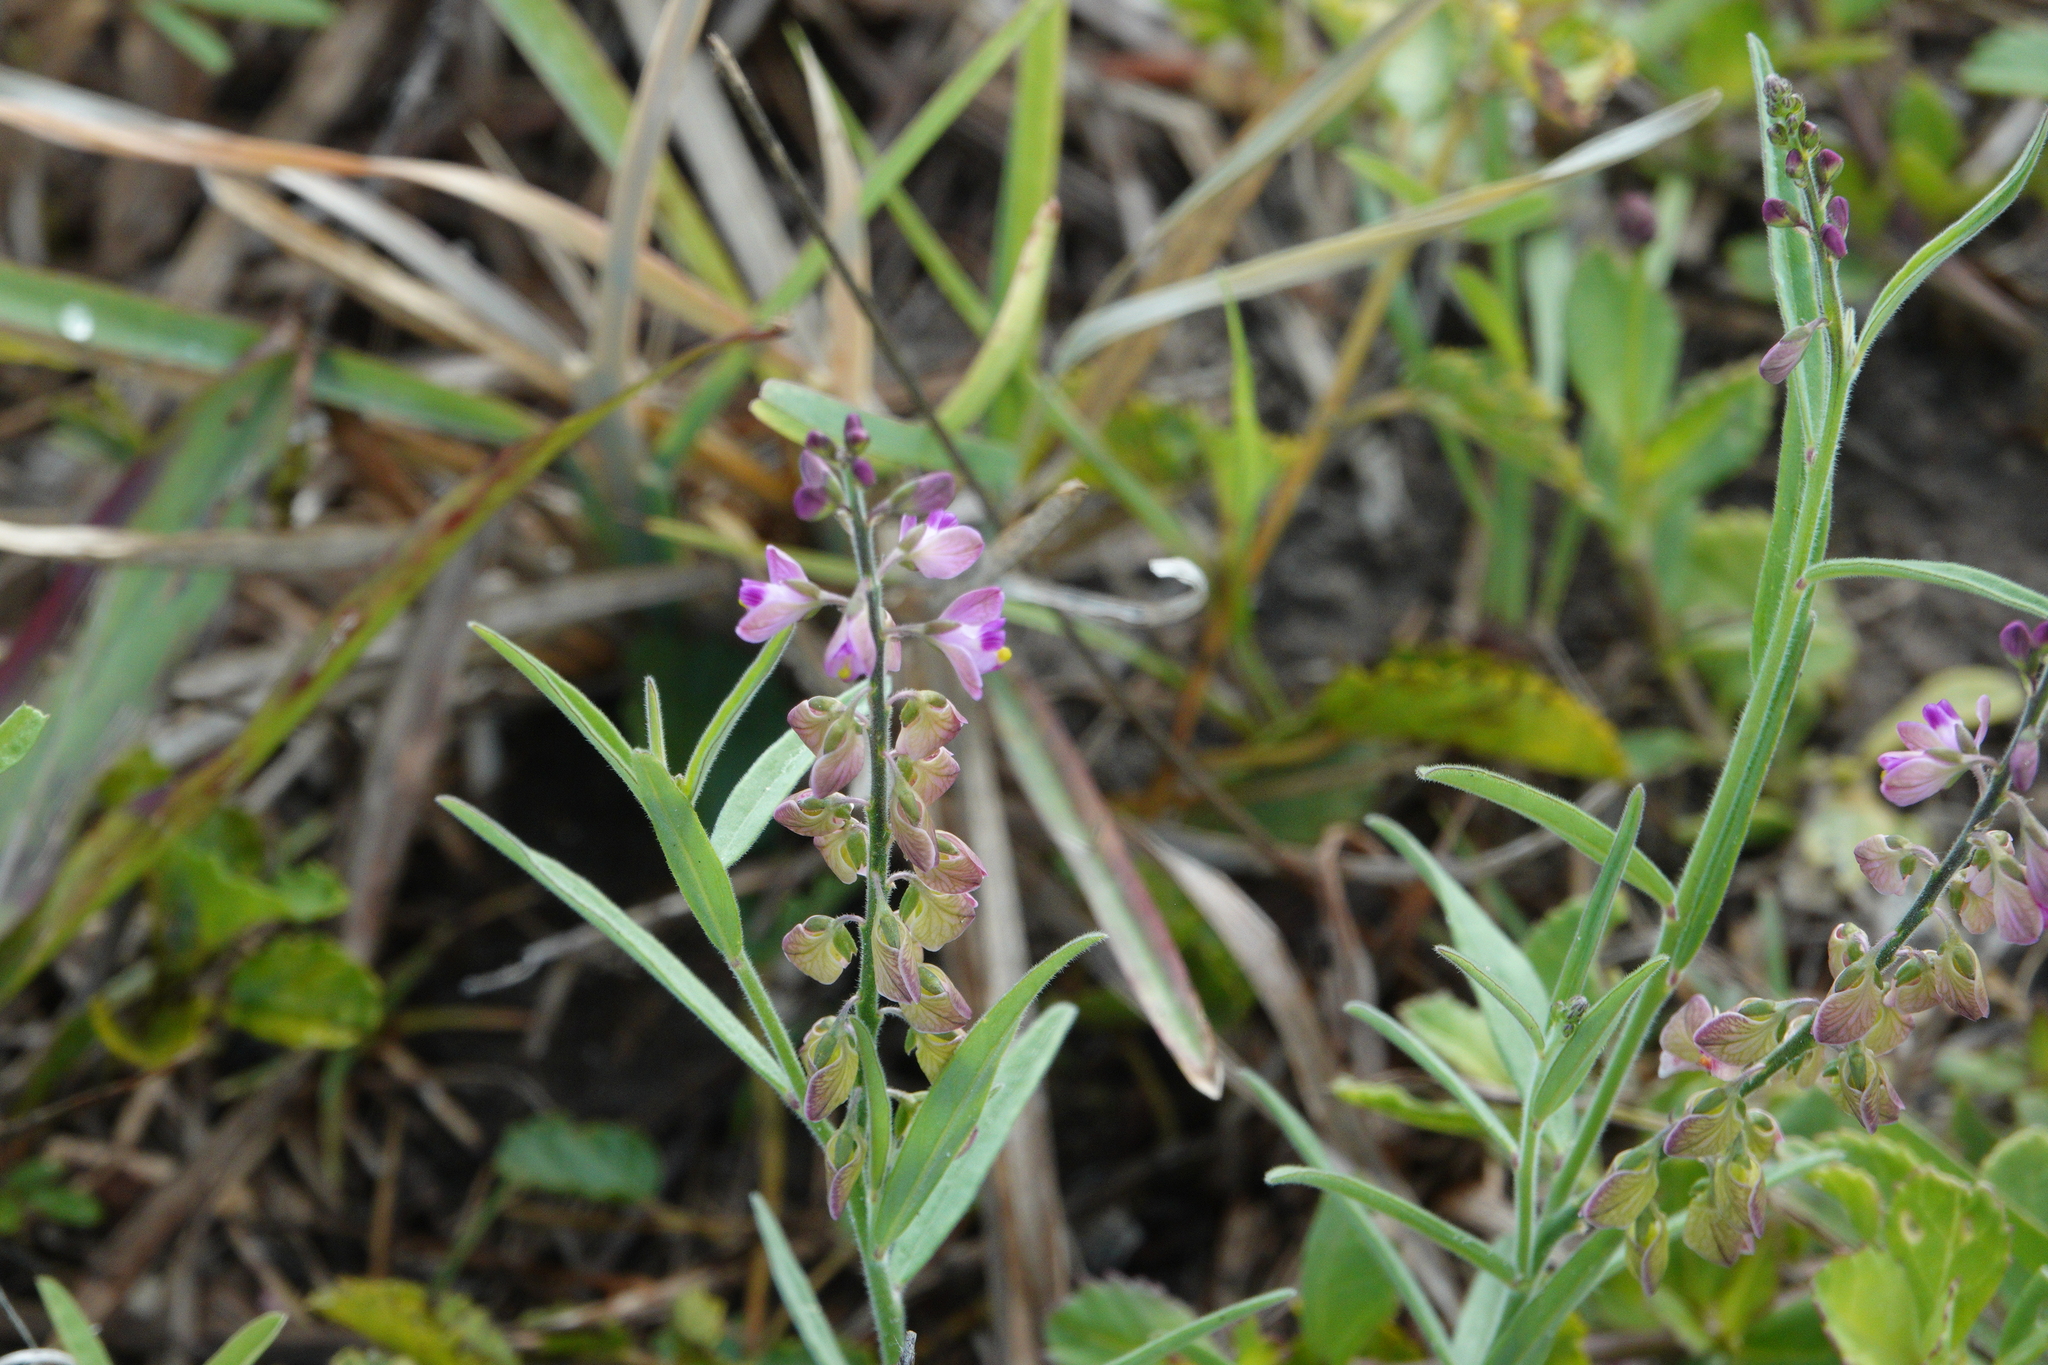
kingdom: Plantae
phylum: Tracheophyta
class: Magnoliopsida
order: Fabales
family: Polygalaceae
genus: Asemeia
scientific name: Asemeia grandiflora
